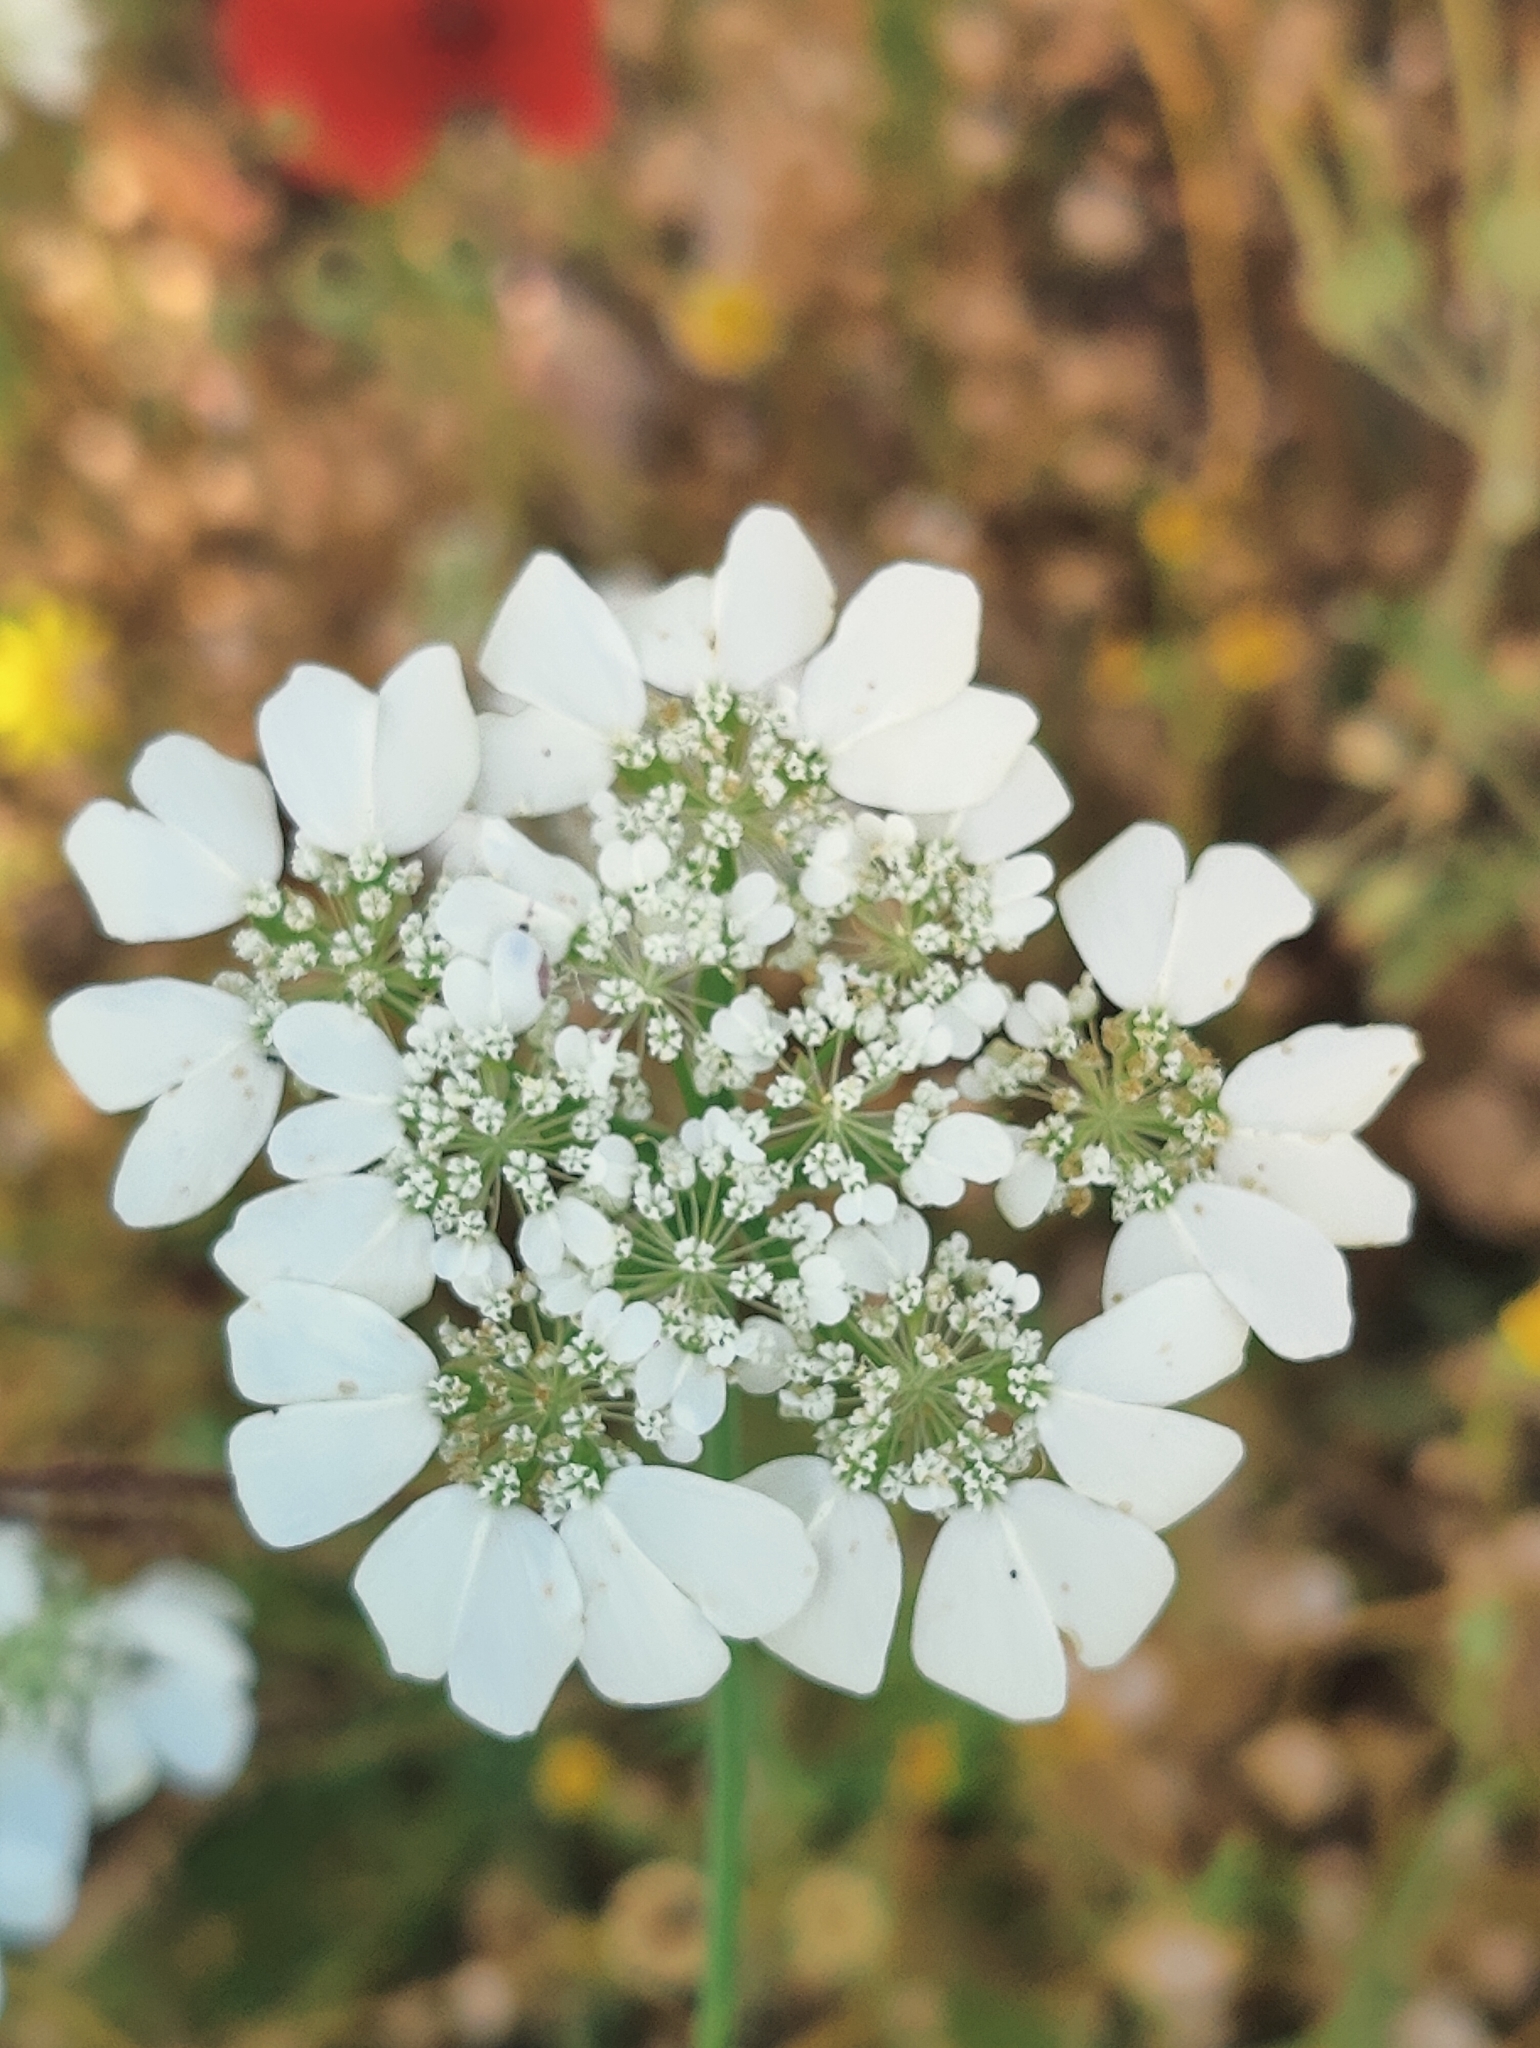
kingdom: Plantae
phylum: Tracheophyta
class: Magnoliopsida
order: Apiales
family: Apiaceae
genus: Orlaya
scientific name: Orlaya grandiflora
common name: White lace flower
